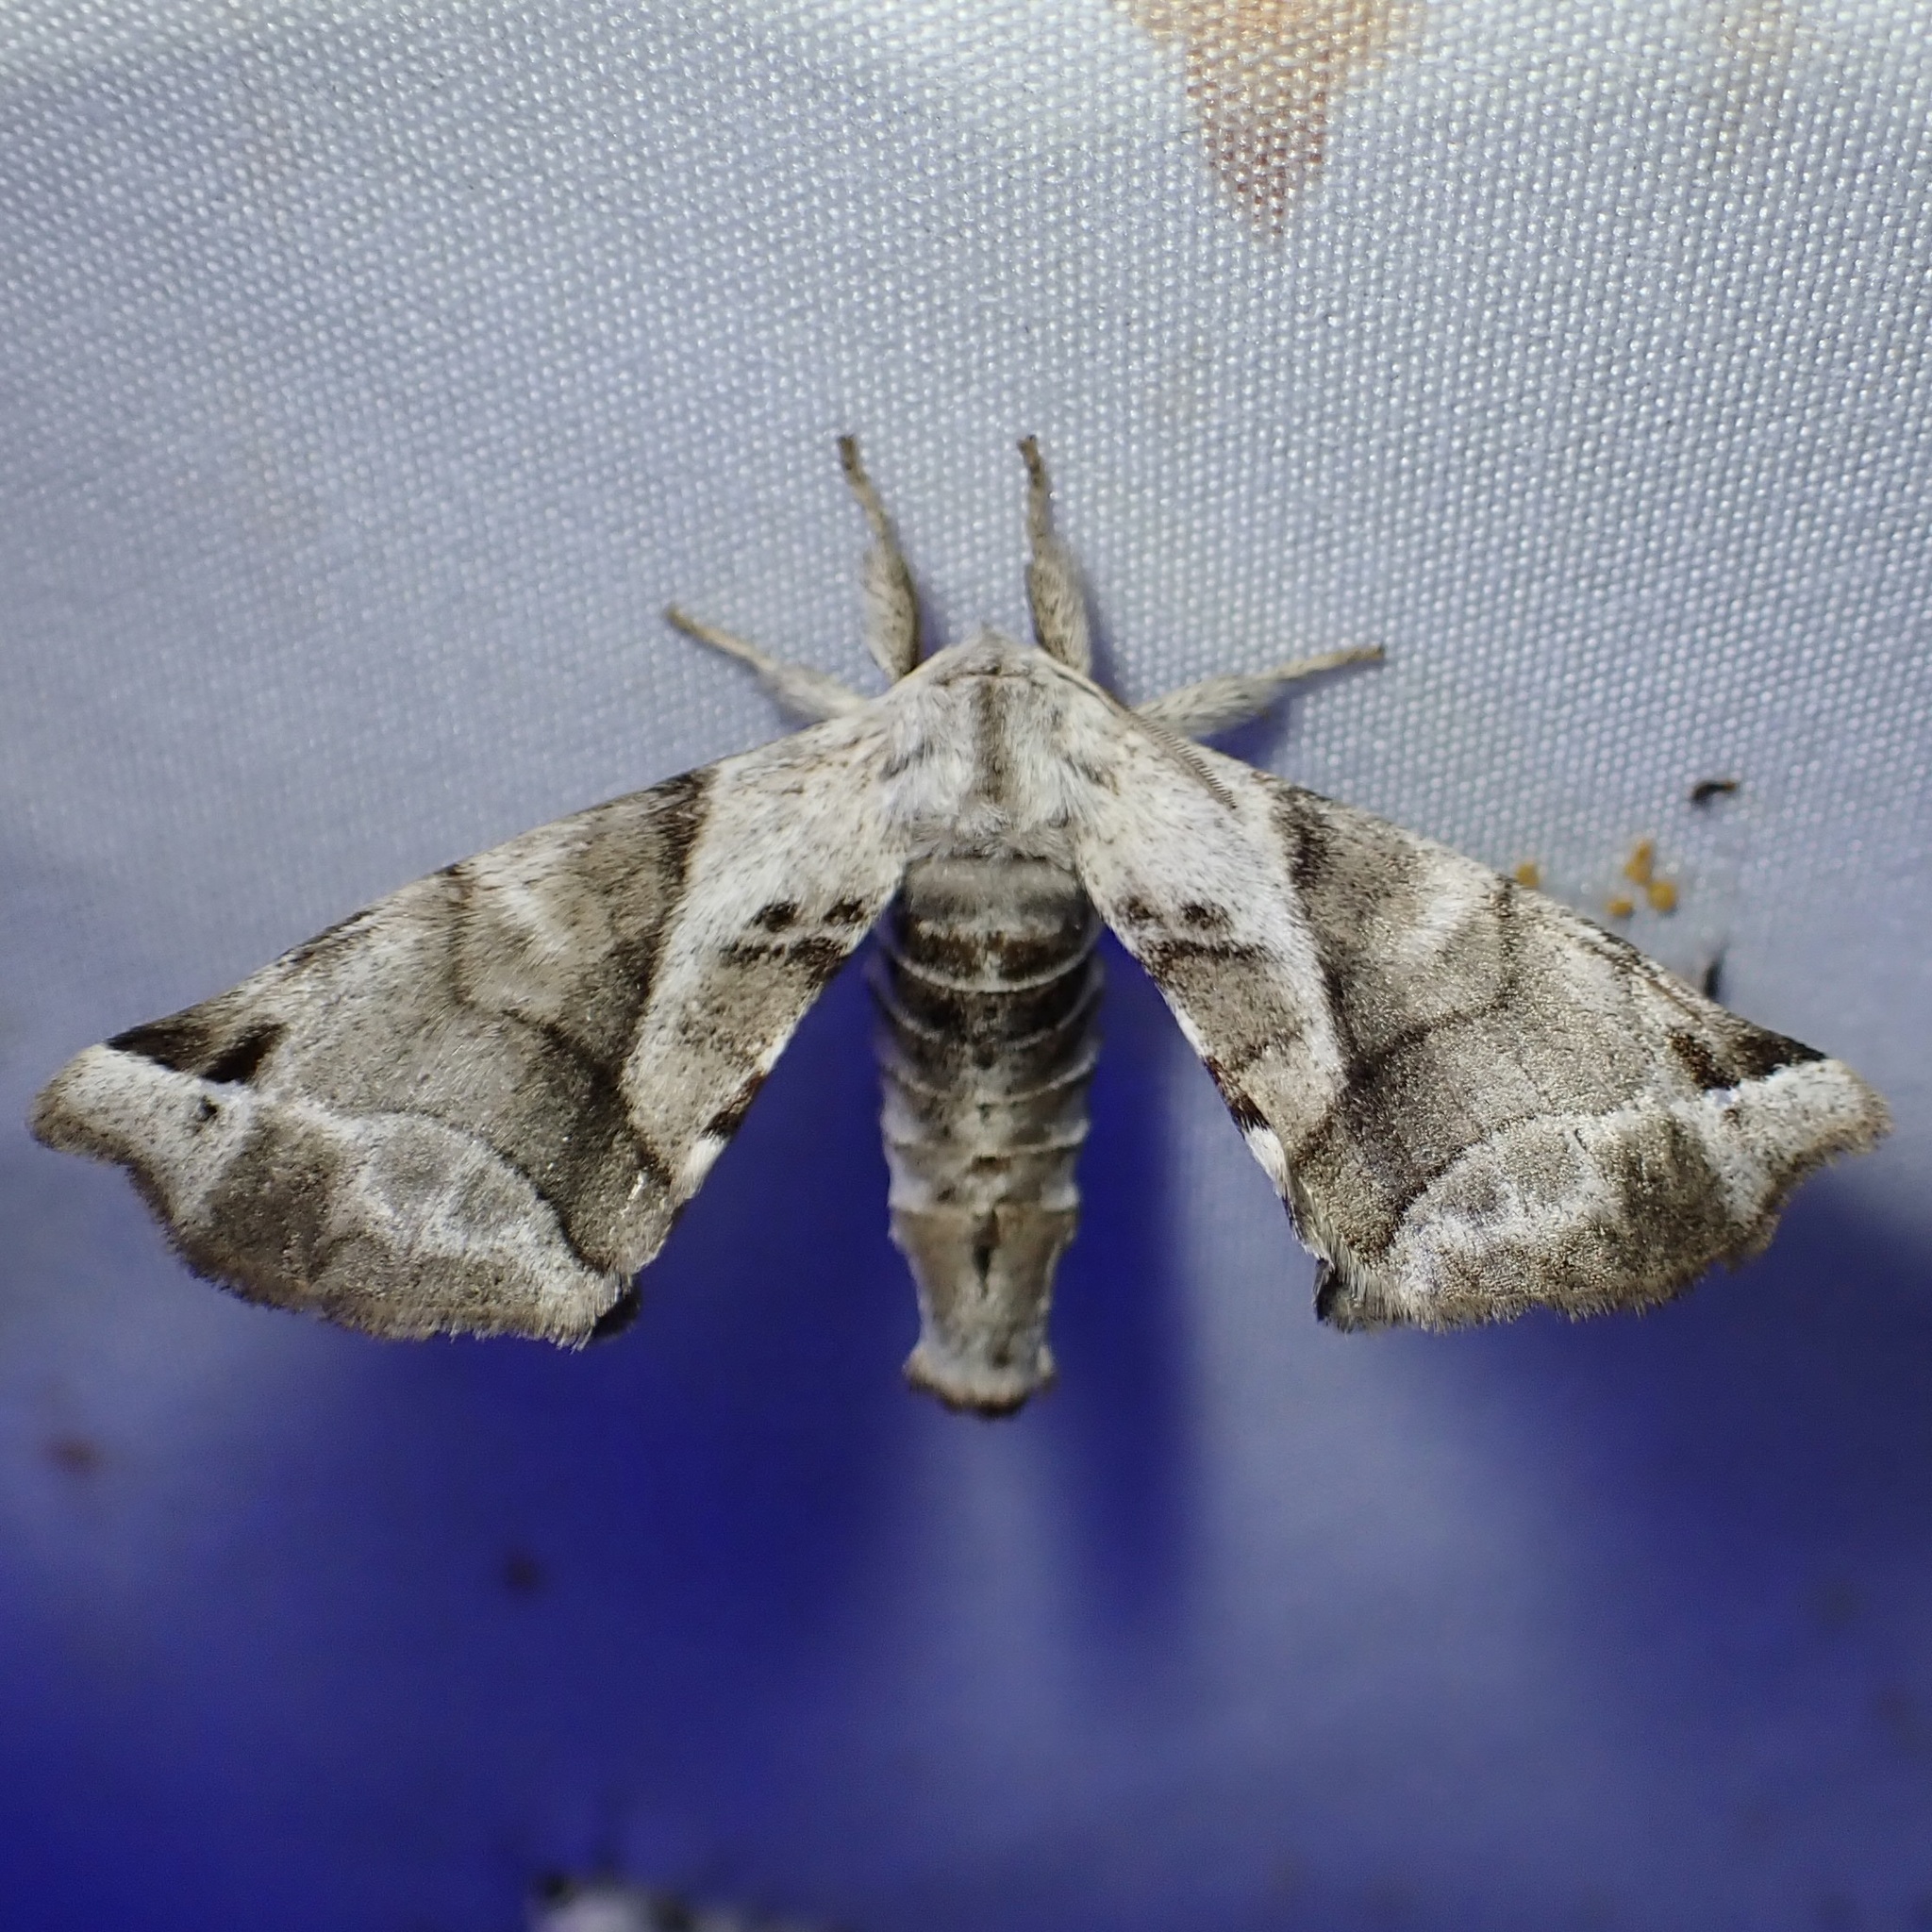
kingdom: Animalia
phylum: Arthropoda
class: Insecta
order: Lepidoptera
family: Apatelodidae
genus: Hygrochroa
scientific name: Hygrochroa Apatelodes pudefacta
